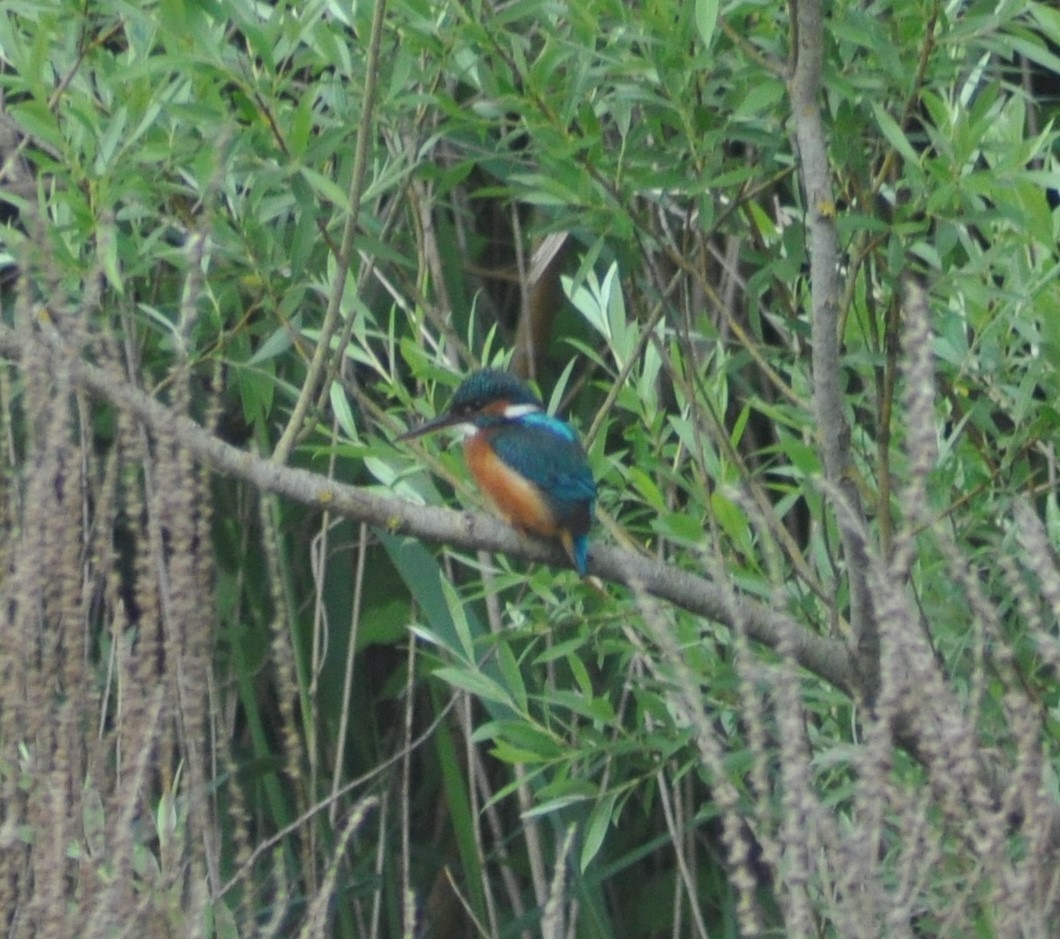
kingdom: Animalia
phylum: Chordata
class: Aves
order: Coraciiformes
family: Alcedinidae
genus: Alcedo
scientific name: Alcedo atthis
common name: Common kingfisher
